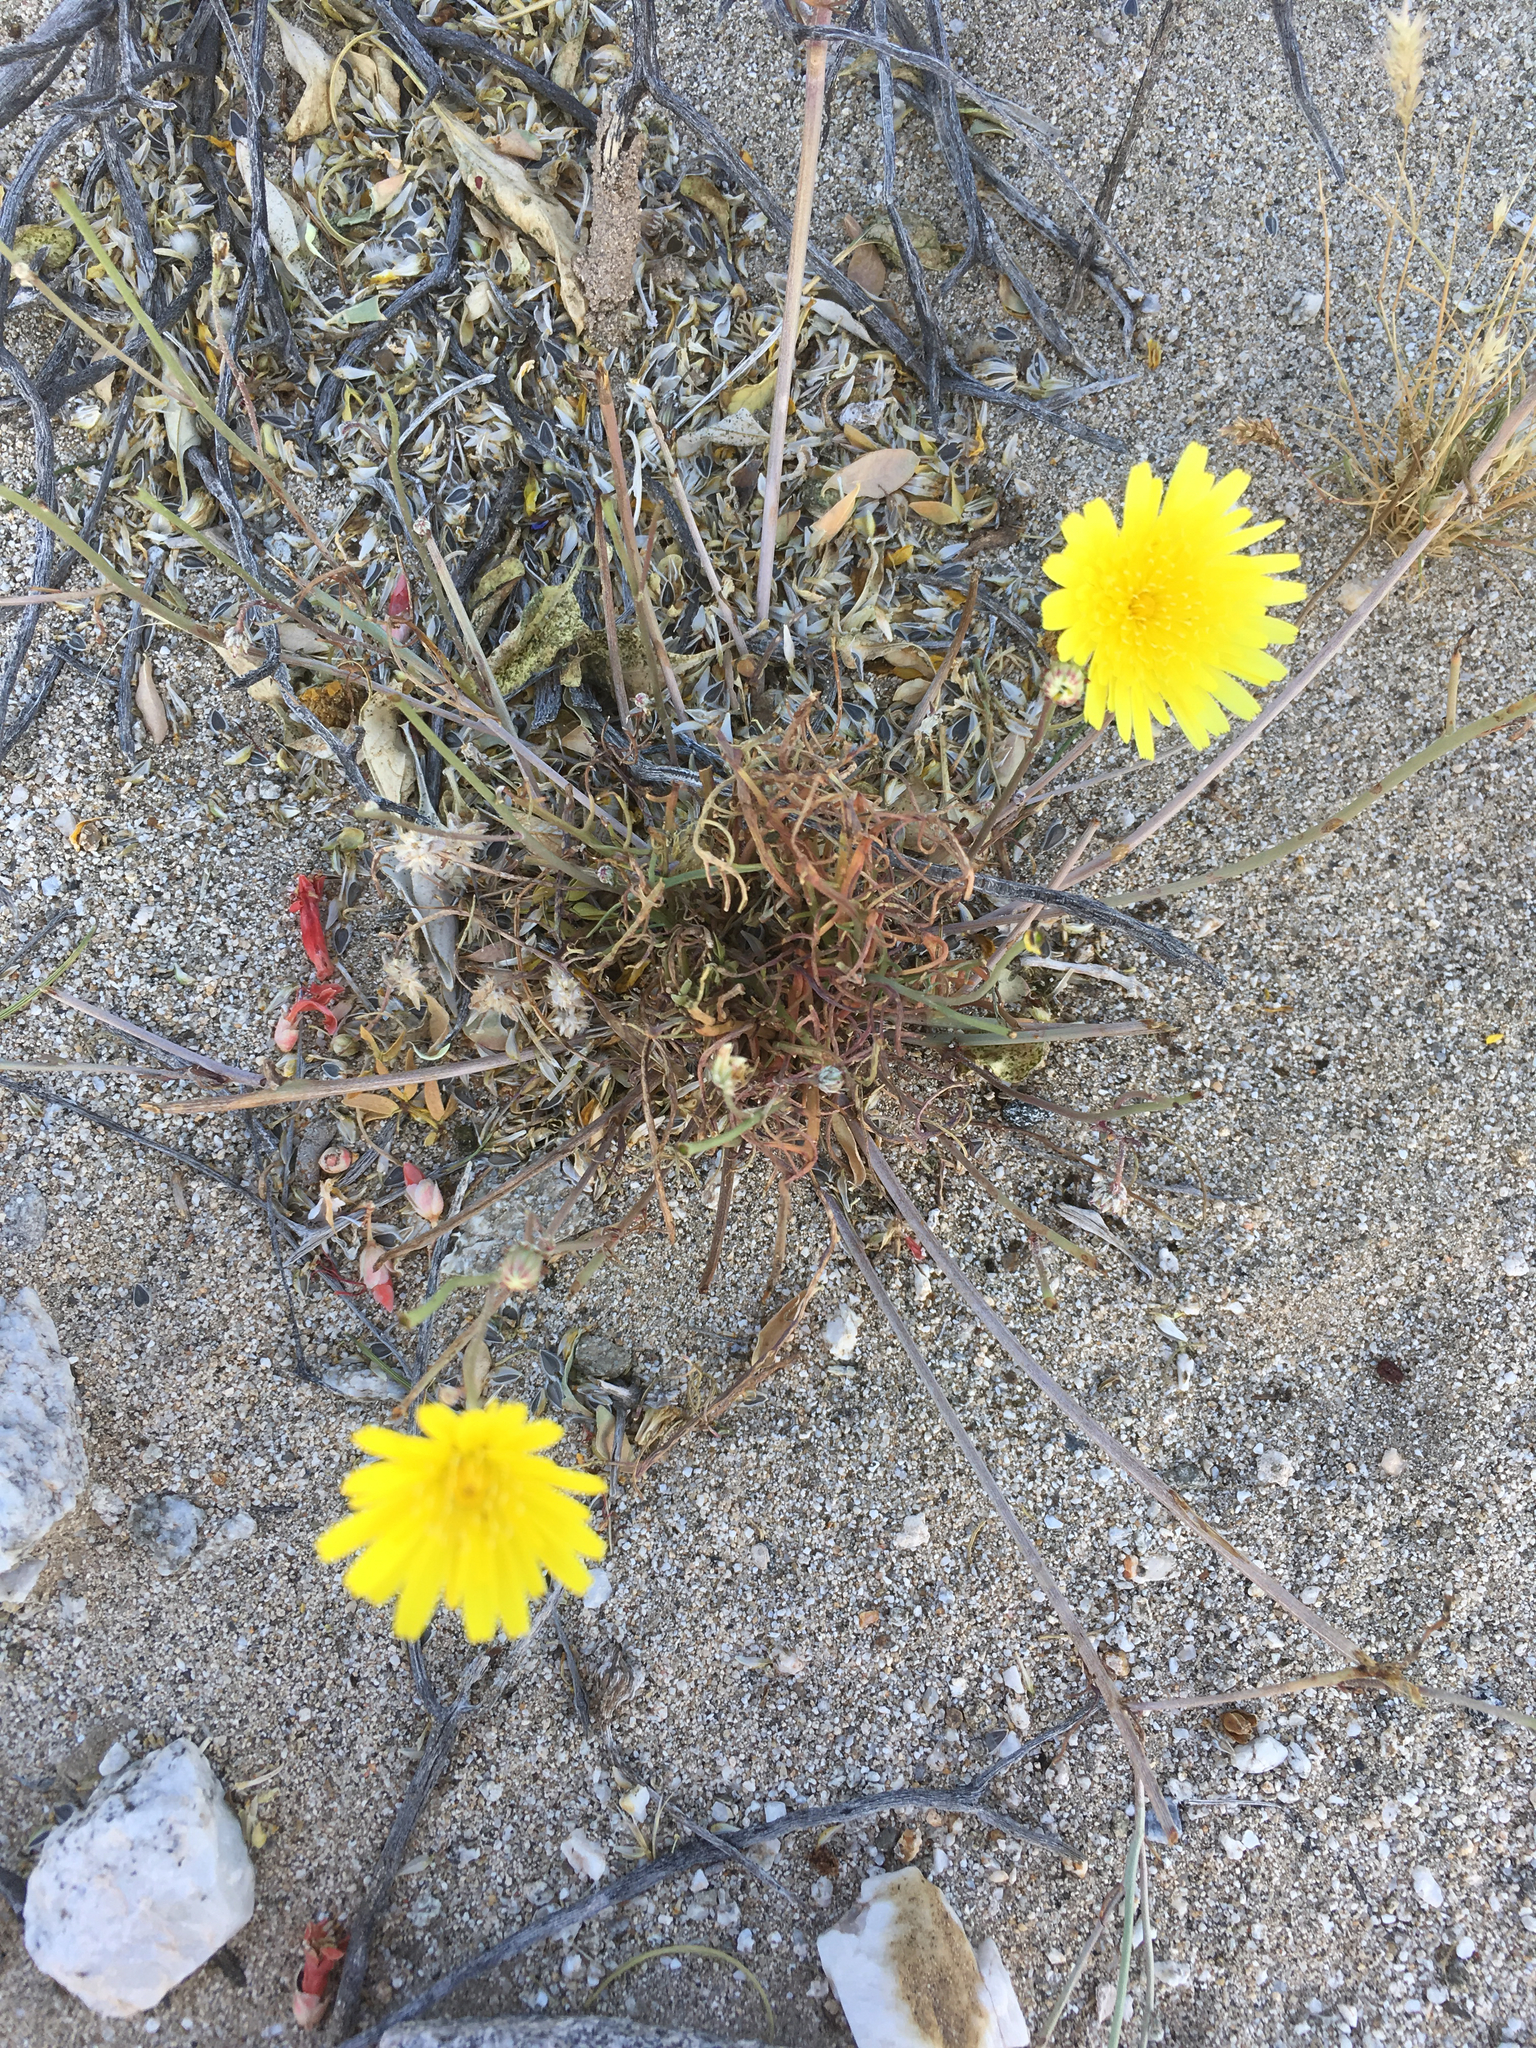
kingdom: Plantae
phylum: Tracheophyta
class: Magnoliopsida
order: Asterales
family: Asteraceae
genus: Malacothrix
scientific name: Malacothrix glabrata
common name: Smooth desert-dandelion
